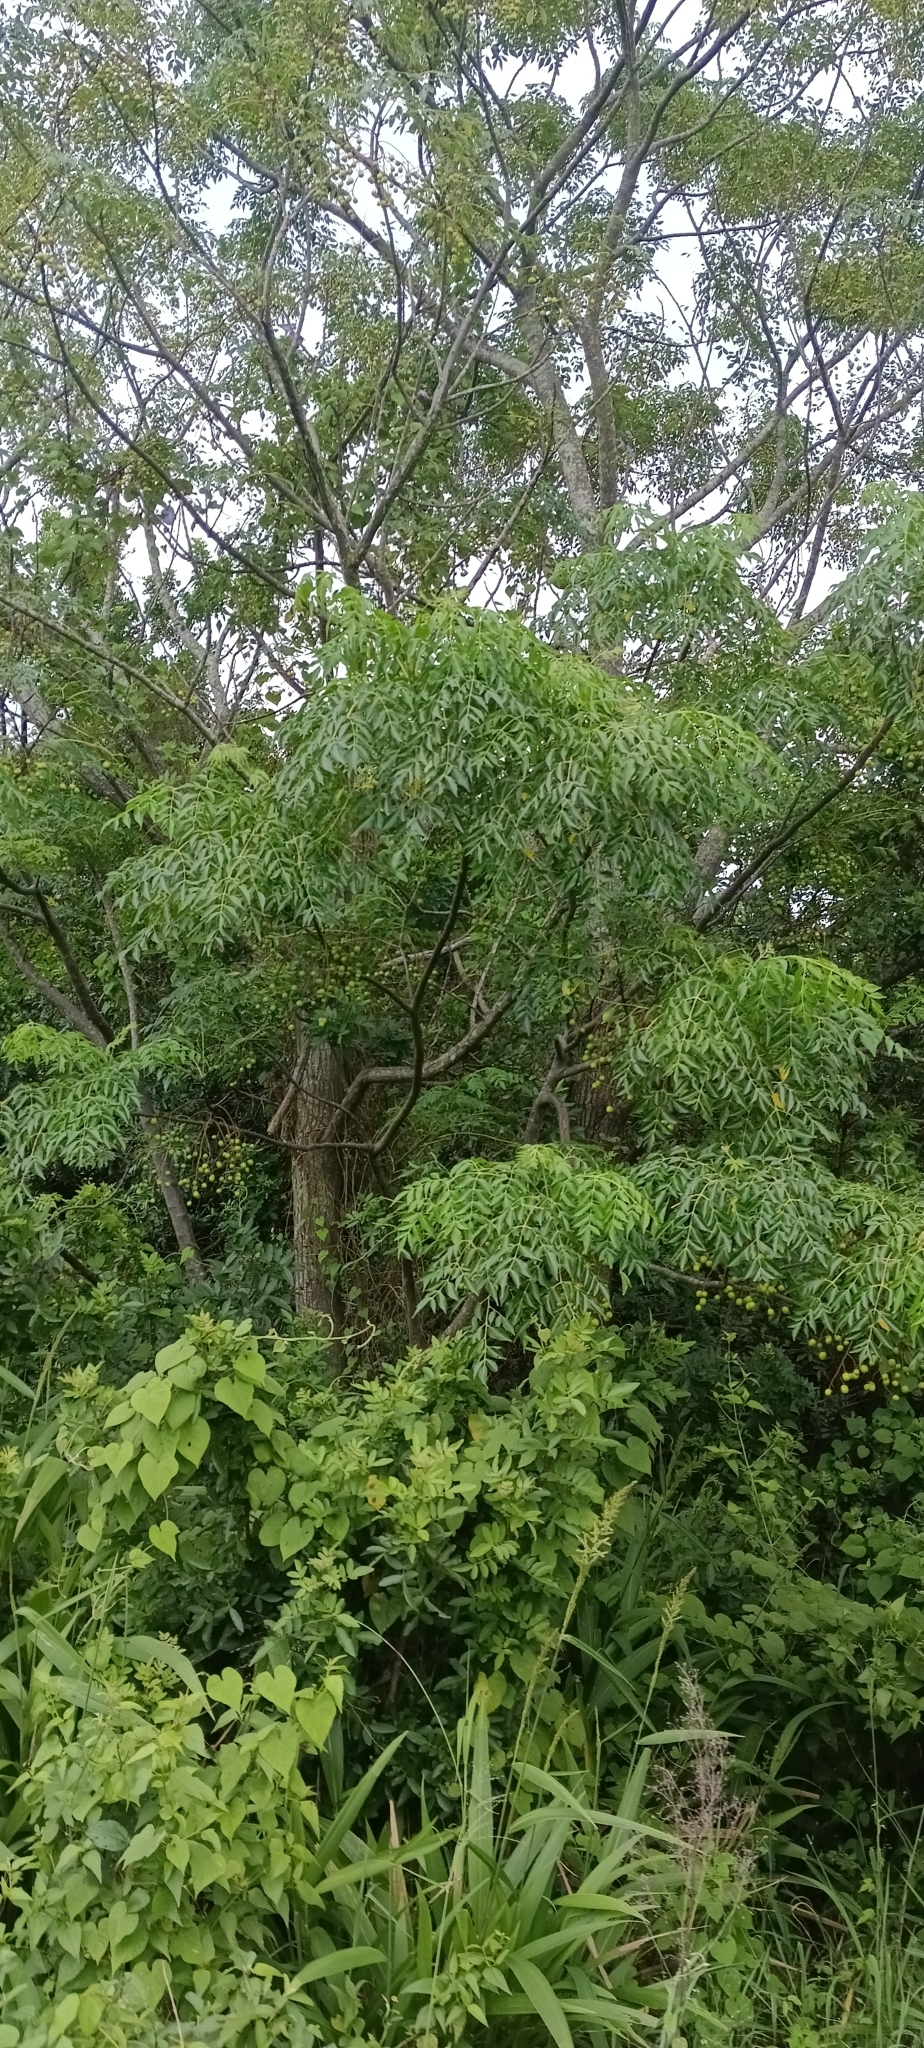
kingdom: Plantae
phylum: Tracheophyta
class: Magnoliopsida
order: Sapindales
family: Meliaceae
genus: Melia
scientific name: Melia azedarach
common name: Chinaberrytree
